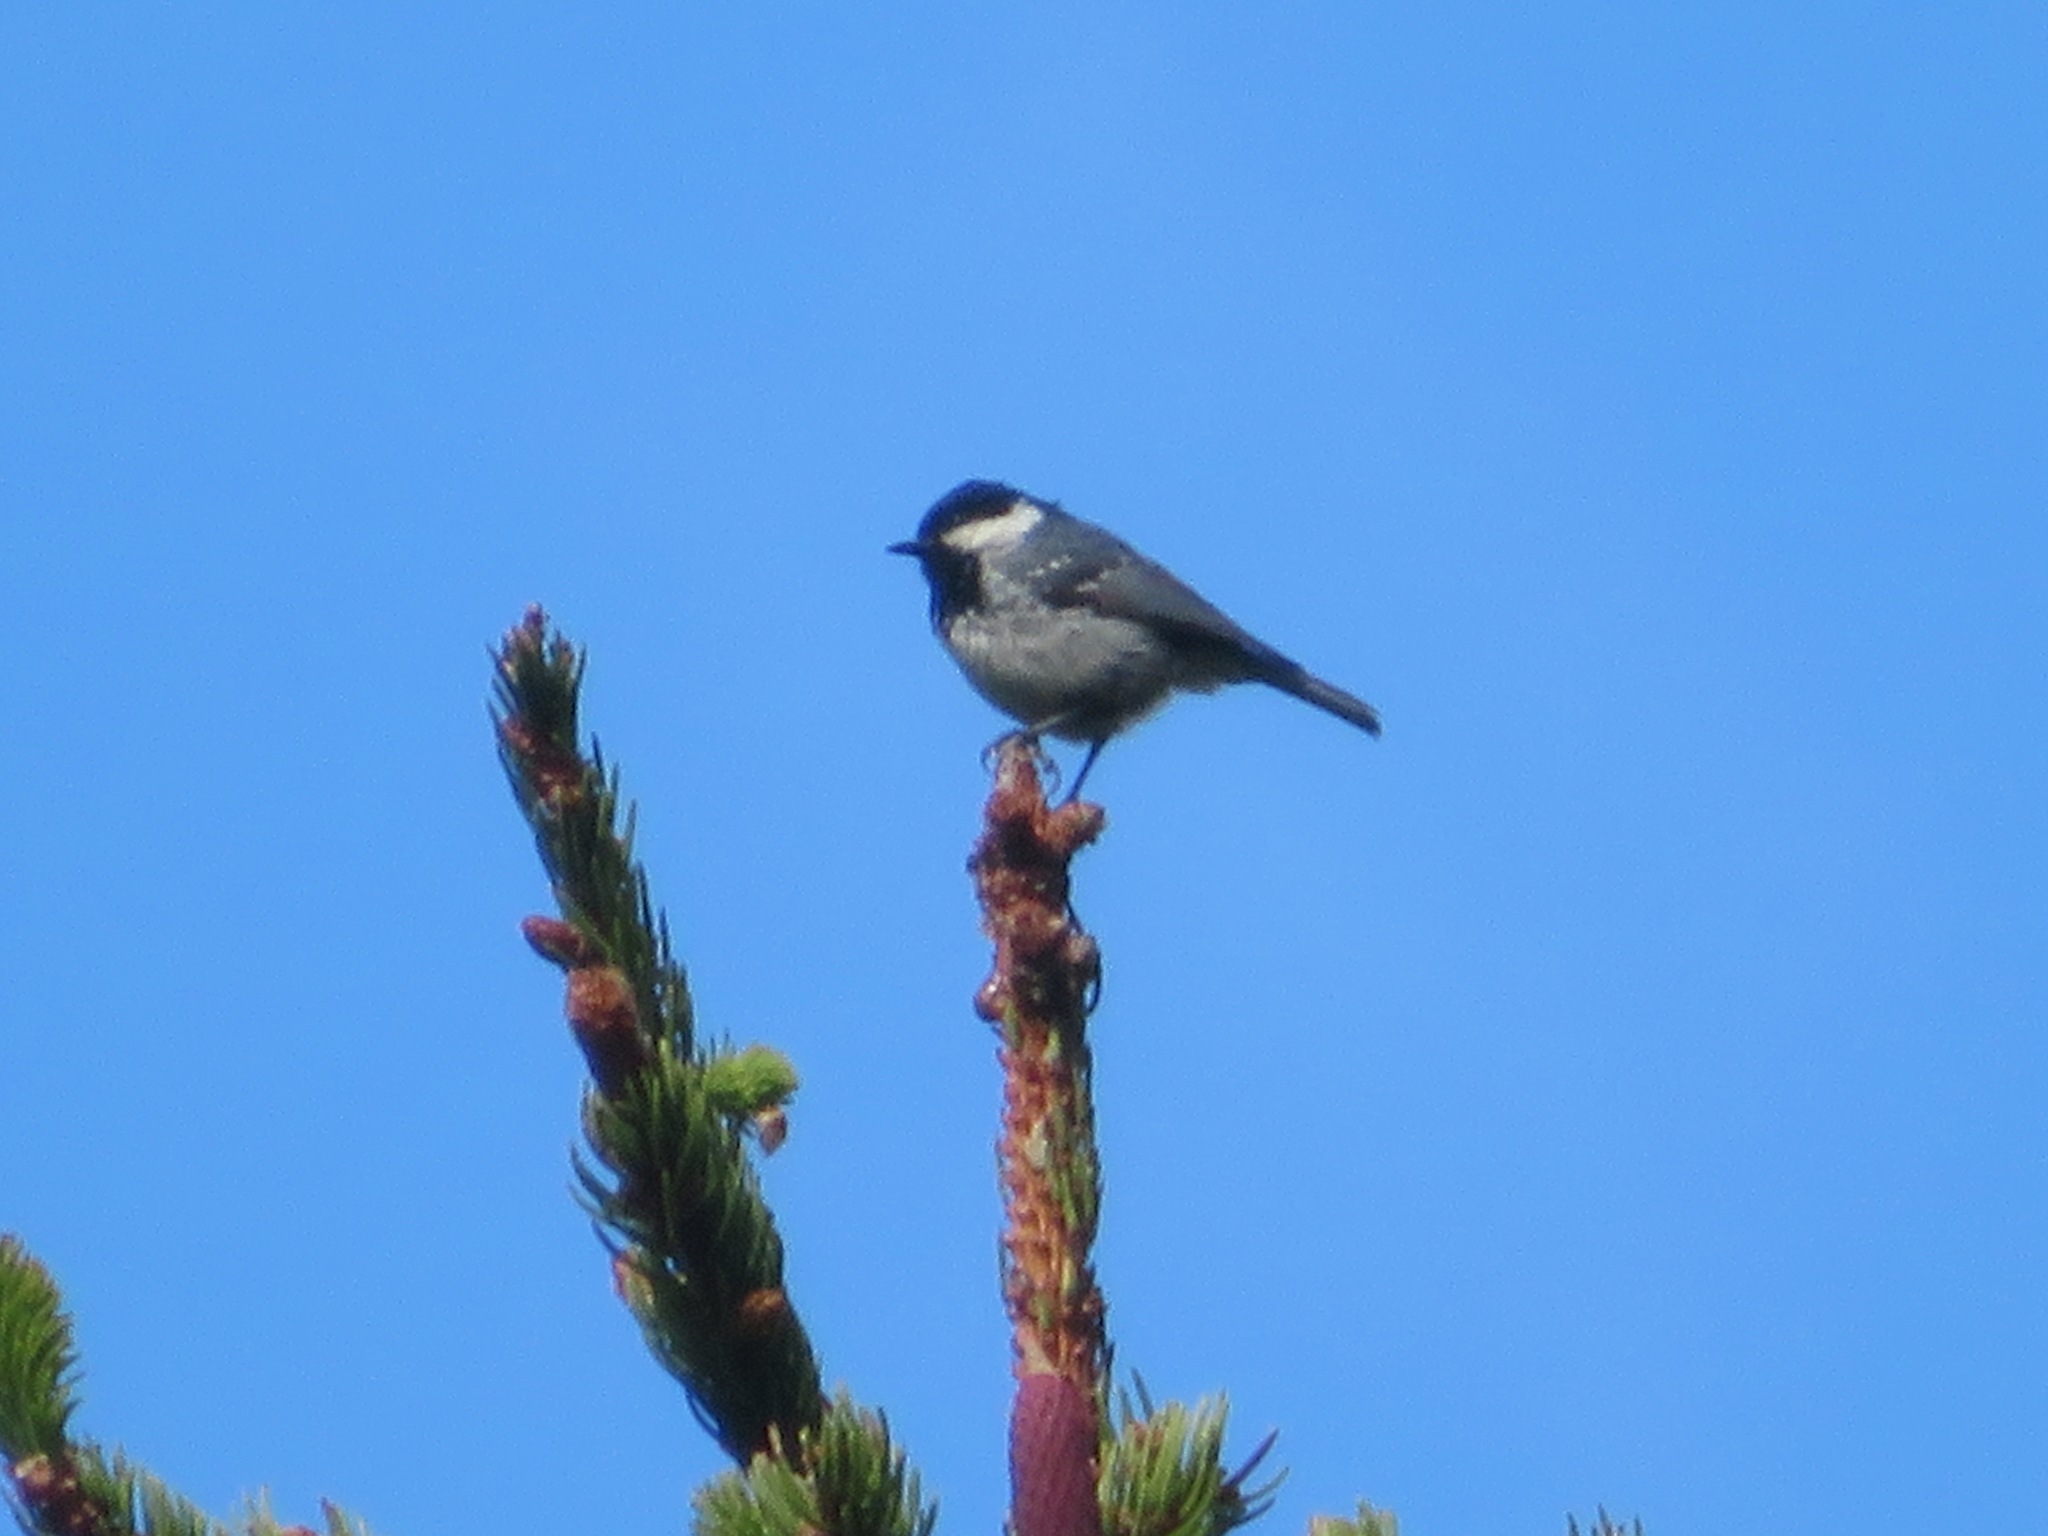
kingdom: Animalia
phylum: Chordata
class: Aves
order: Passeriformes
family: Paridae
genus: Periparus
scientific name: Periparus ater
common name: Coal tit
